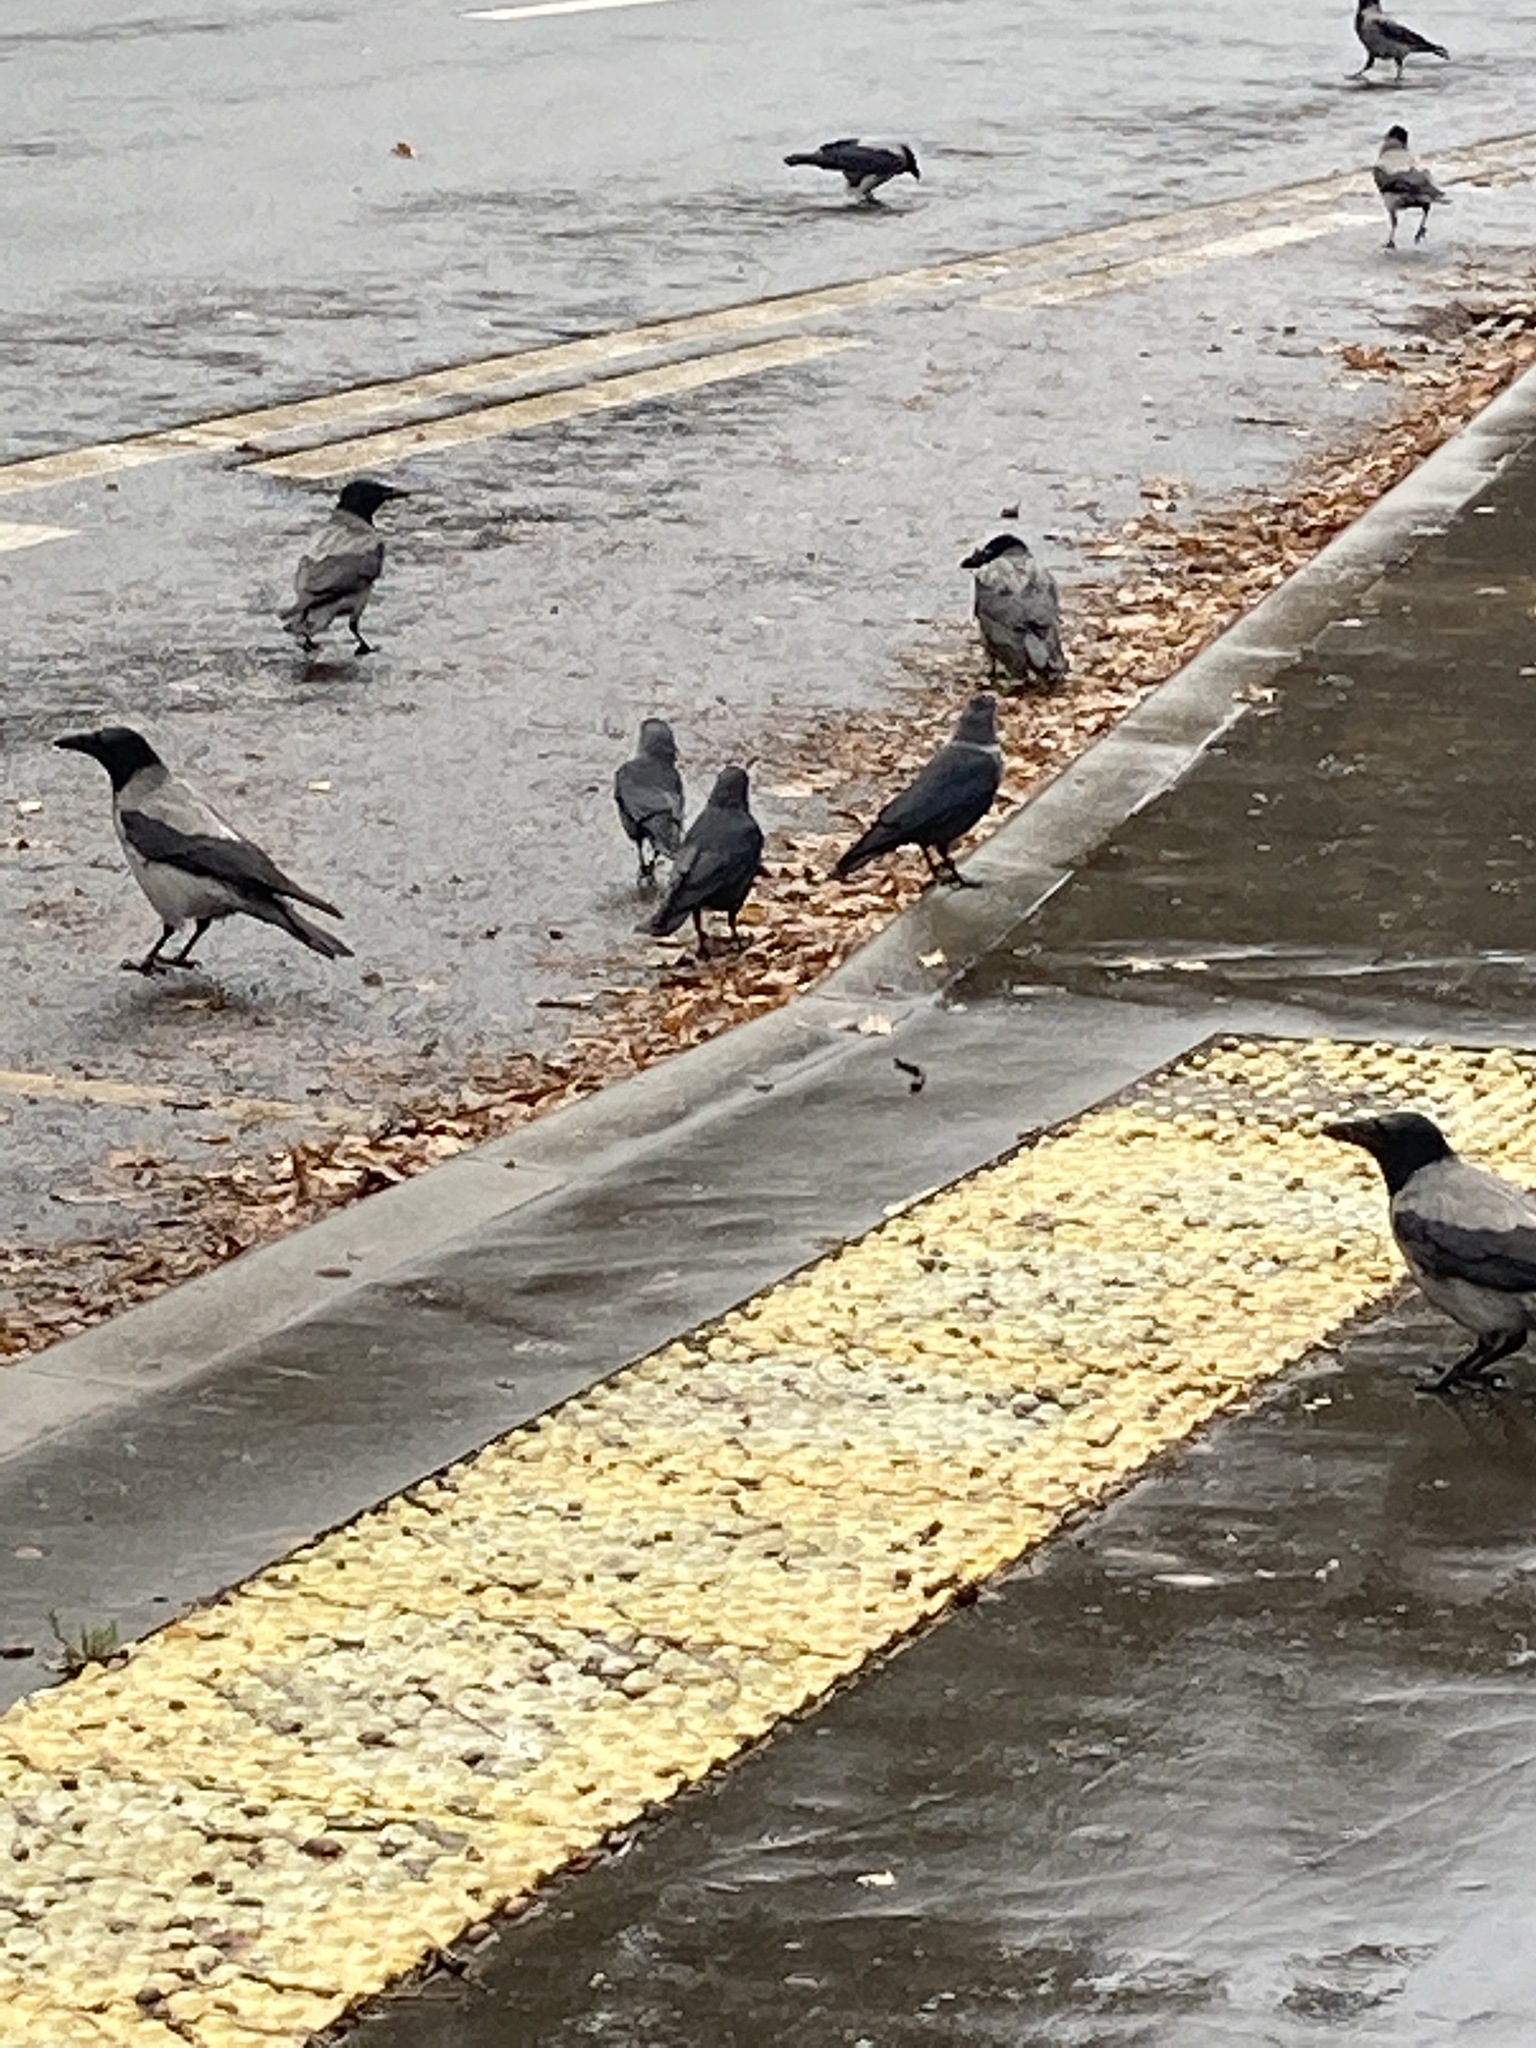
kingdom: Animalia
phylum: Chordata
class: Aves
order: Passeriformes
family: Corvidae
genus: Coloeus
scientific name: Coloeus monedula
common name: Western jackdaw
